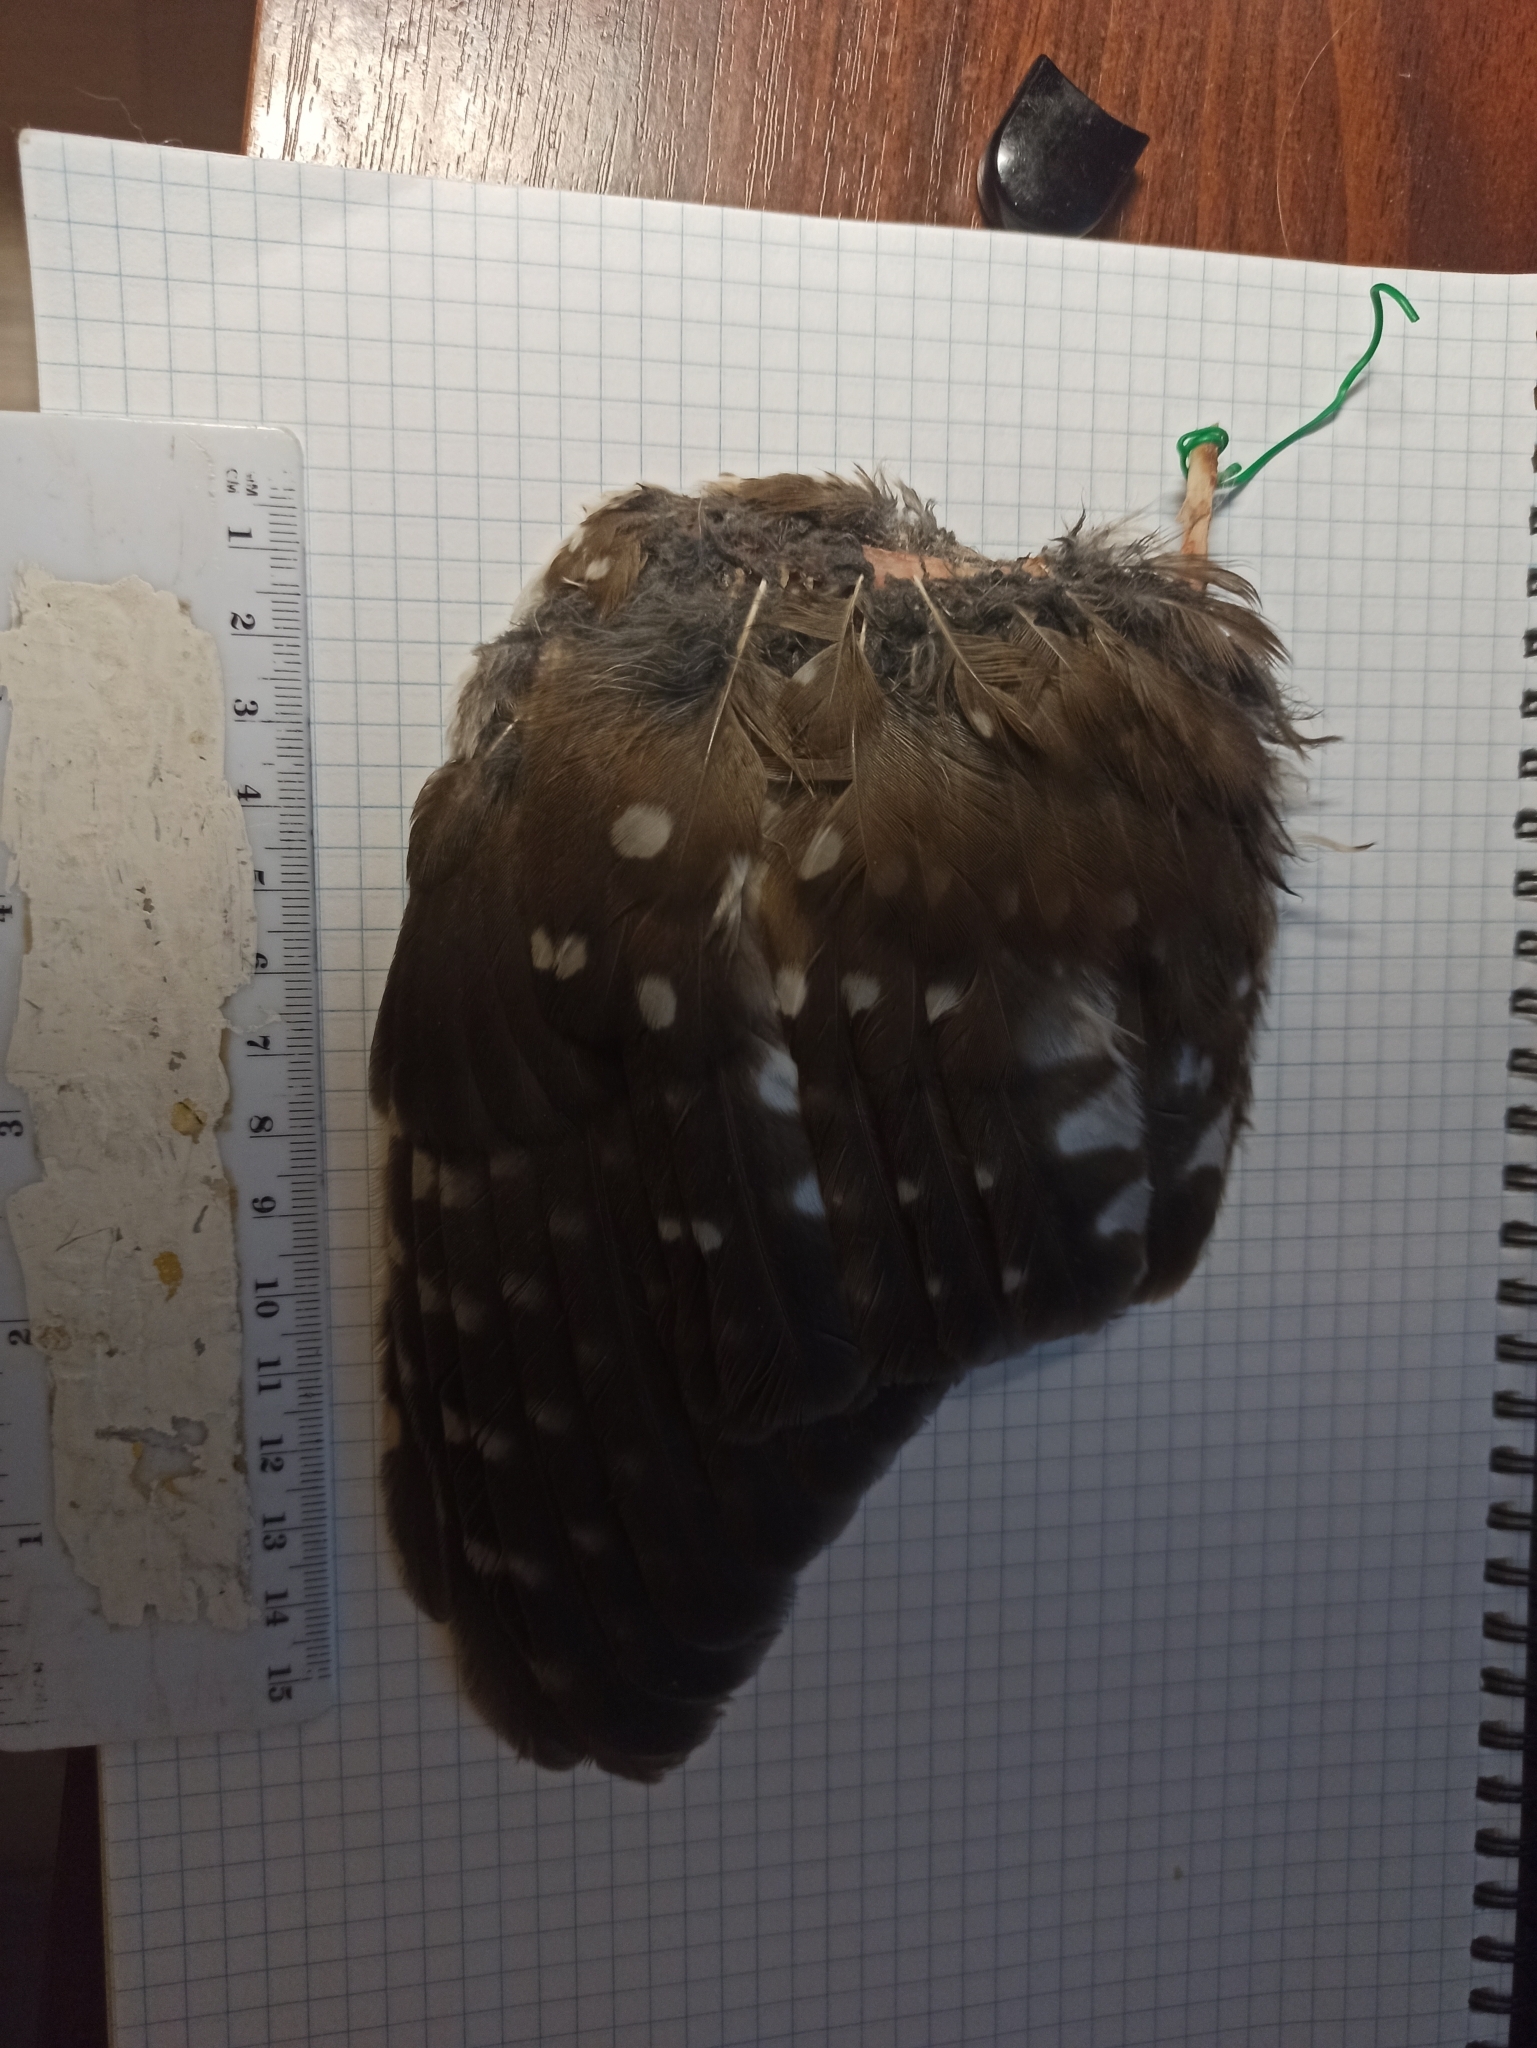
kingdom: Animalia
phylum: Chordata
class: Aves
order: Strigiformes
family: Strigidae
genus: Aegolius
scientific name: Aegolius funereus
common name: Boreal owl
